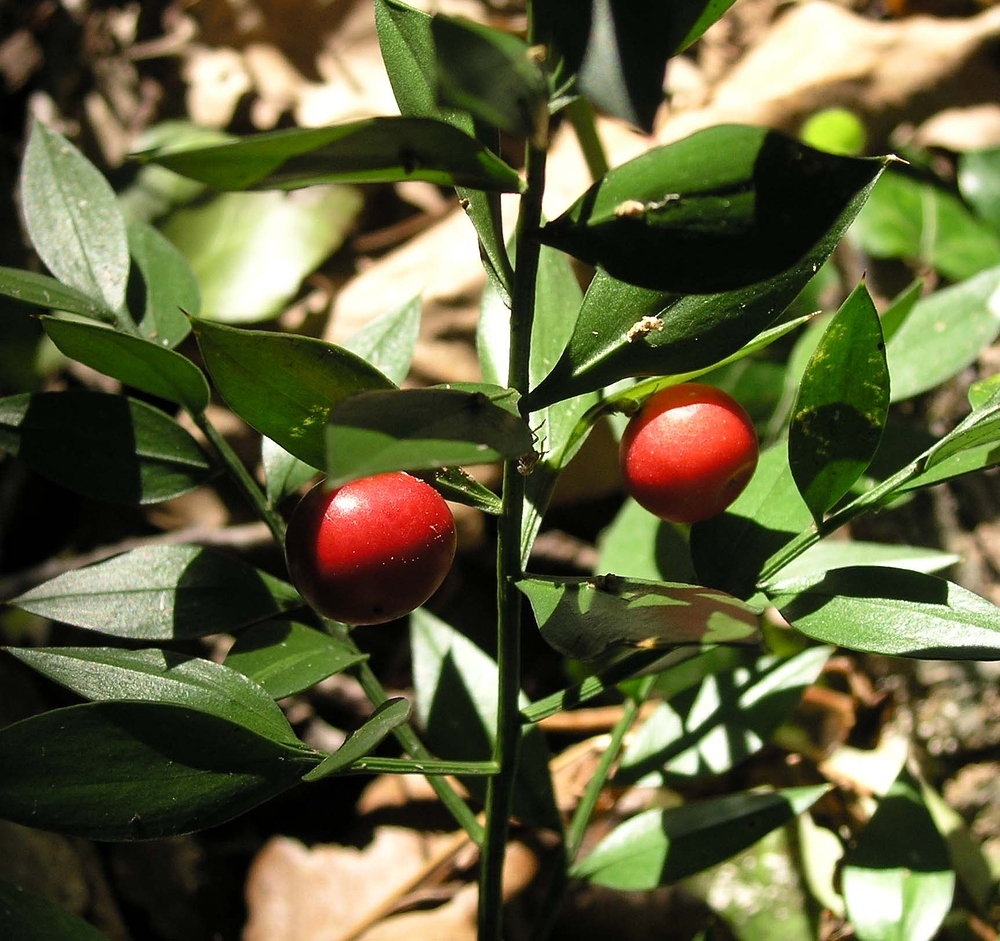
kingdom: Plantae
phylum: Tracheophyta
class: Liliopsida
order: Asparagales
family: Asparagaceae
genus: Ruscus
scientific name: Ruscus aculeatus
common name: Butcher's-broom
